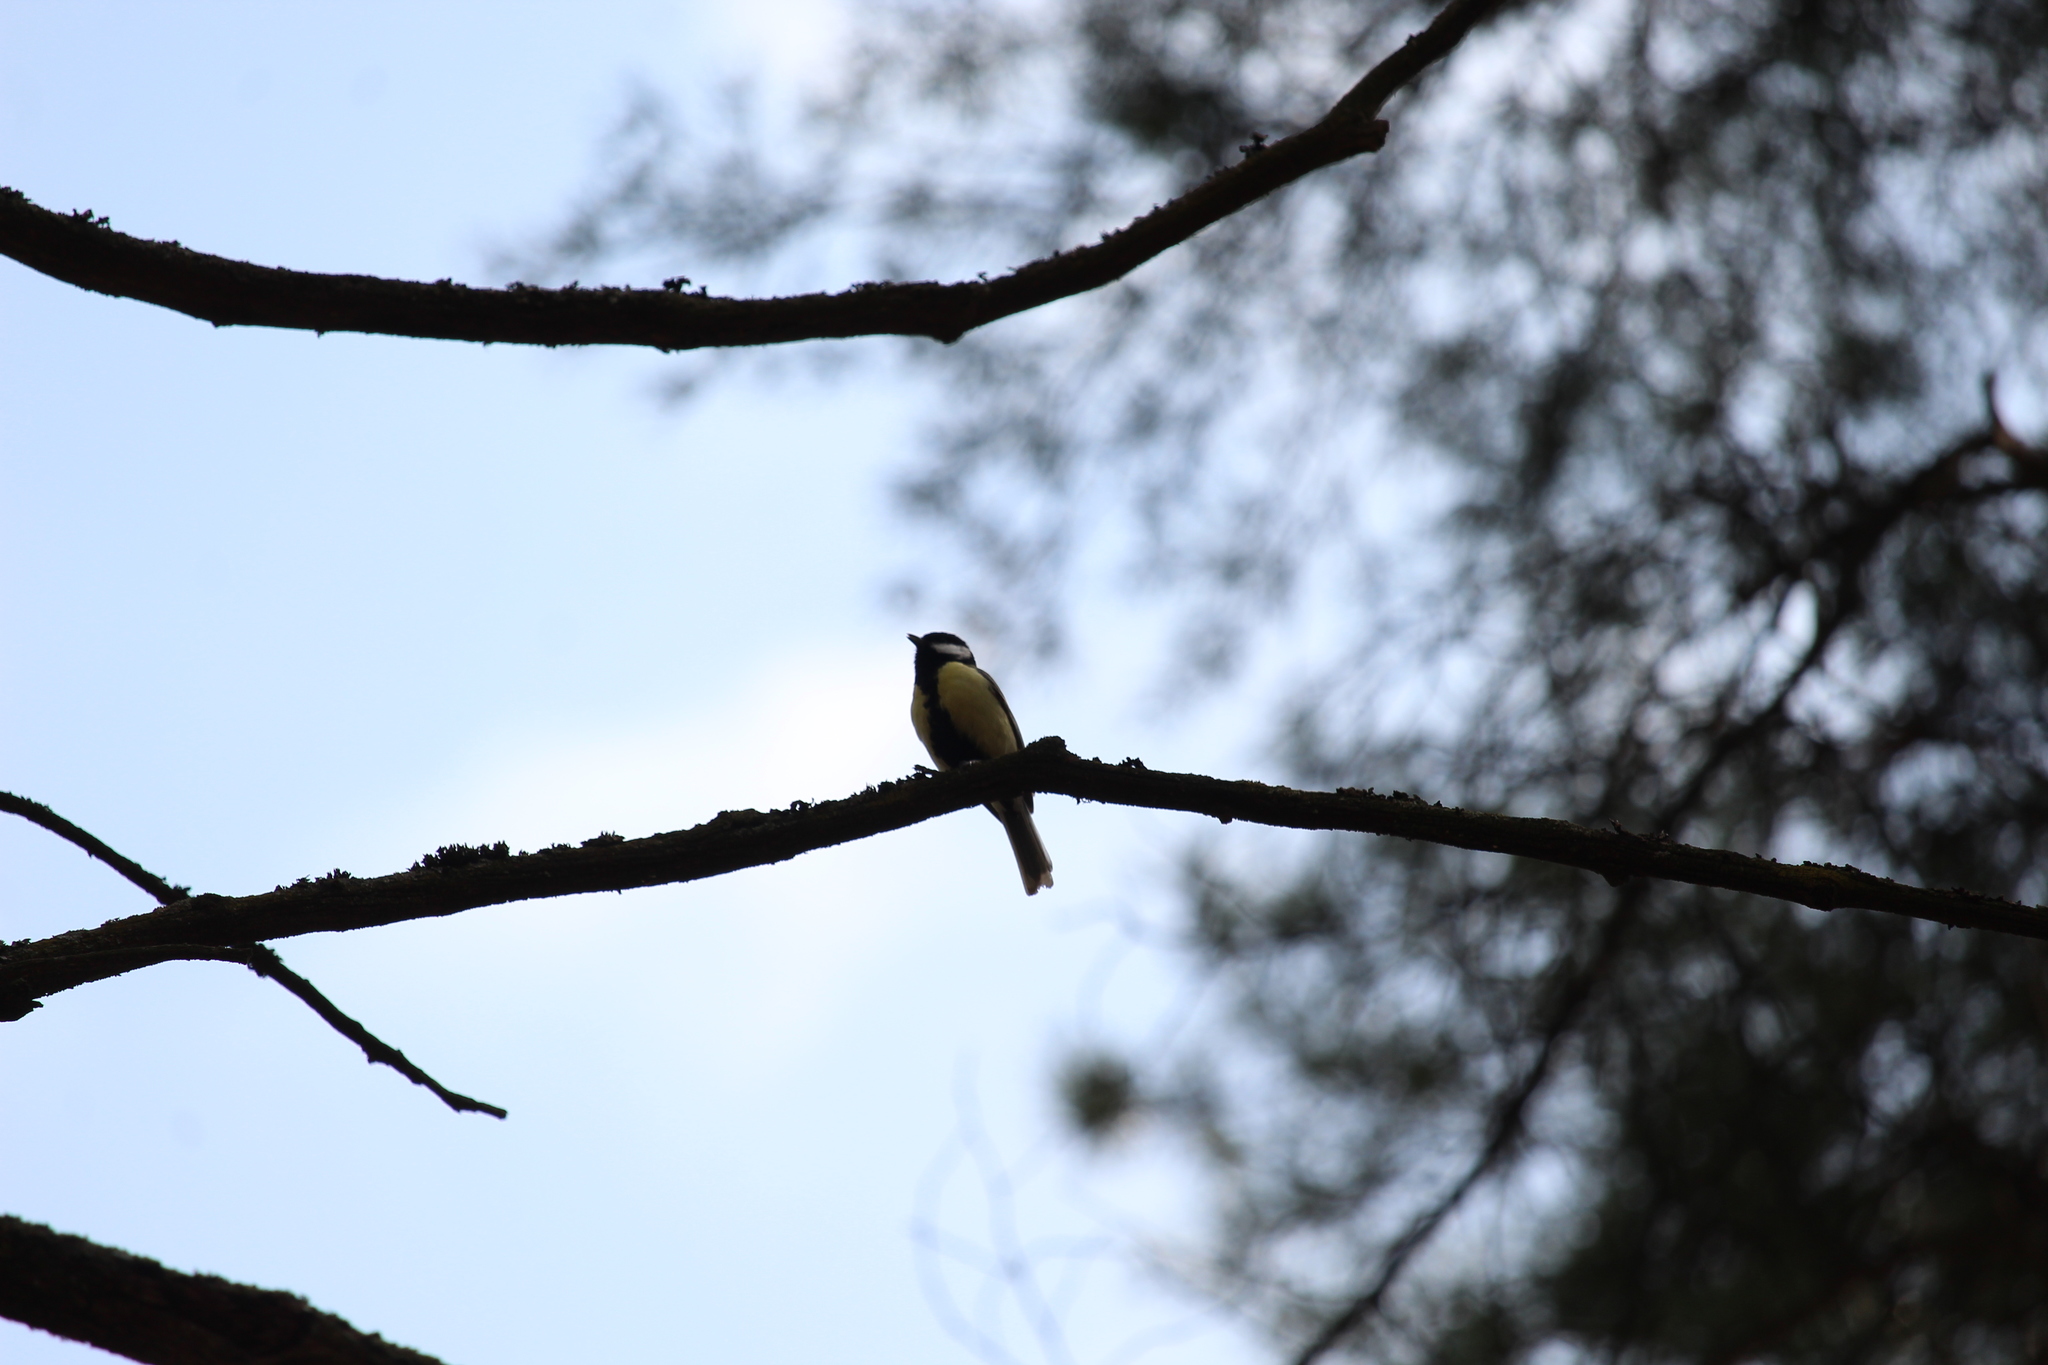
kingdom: Animalia
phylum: Chordata
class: Aves
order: Passeriformes
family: Paridae
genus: Parus
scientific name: Parus major
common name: Great tit
